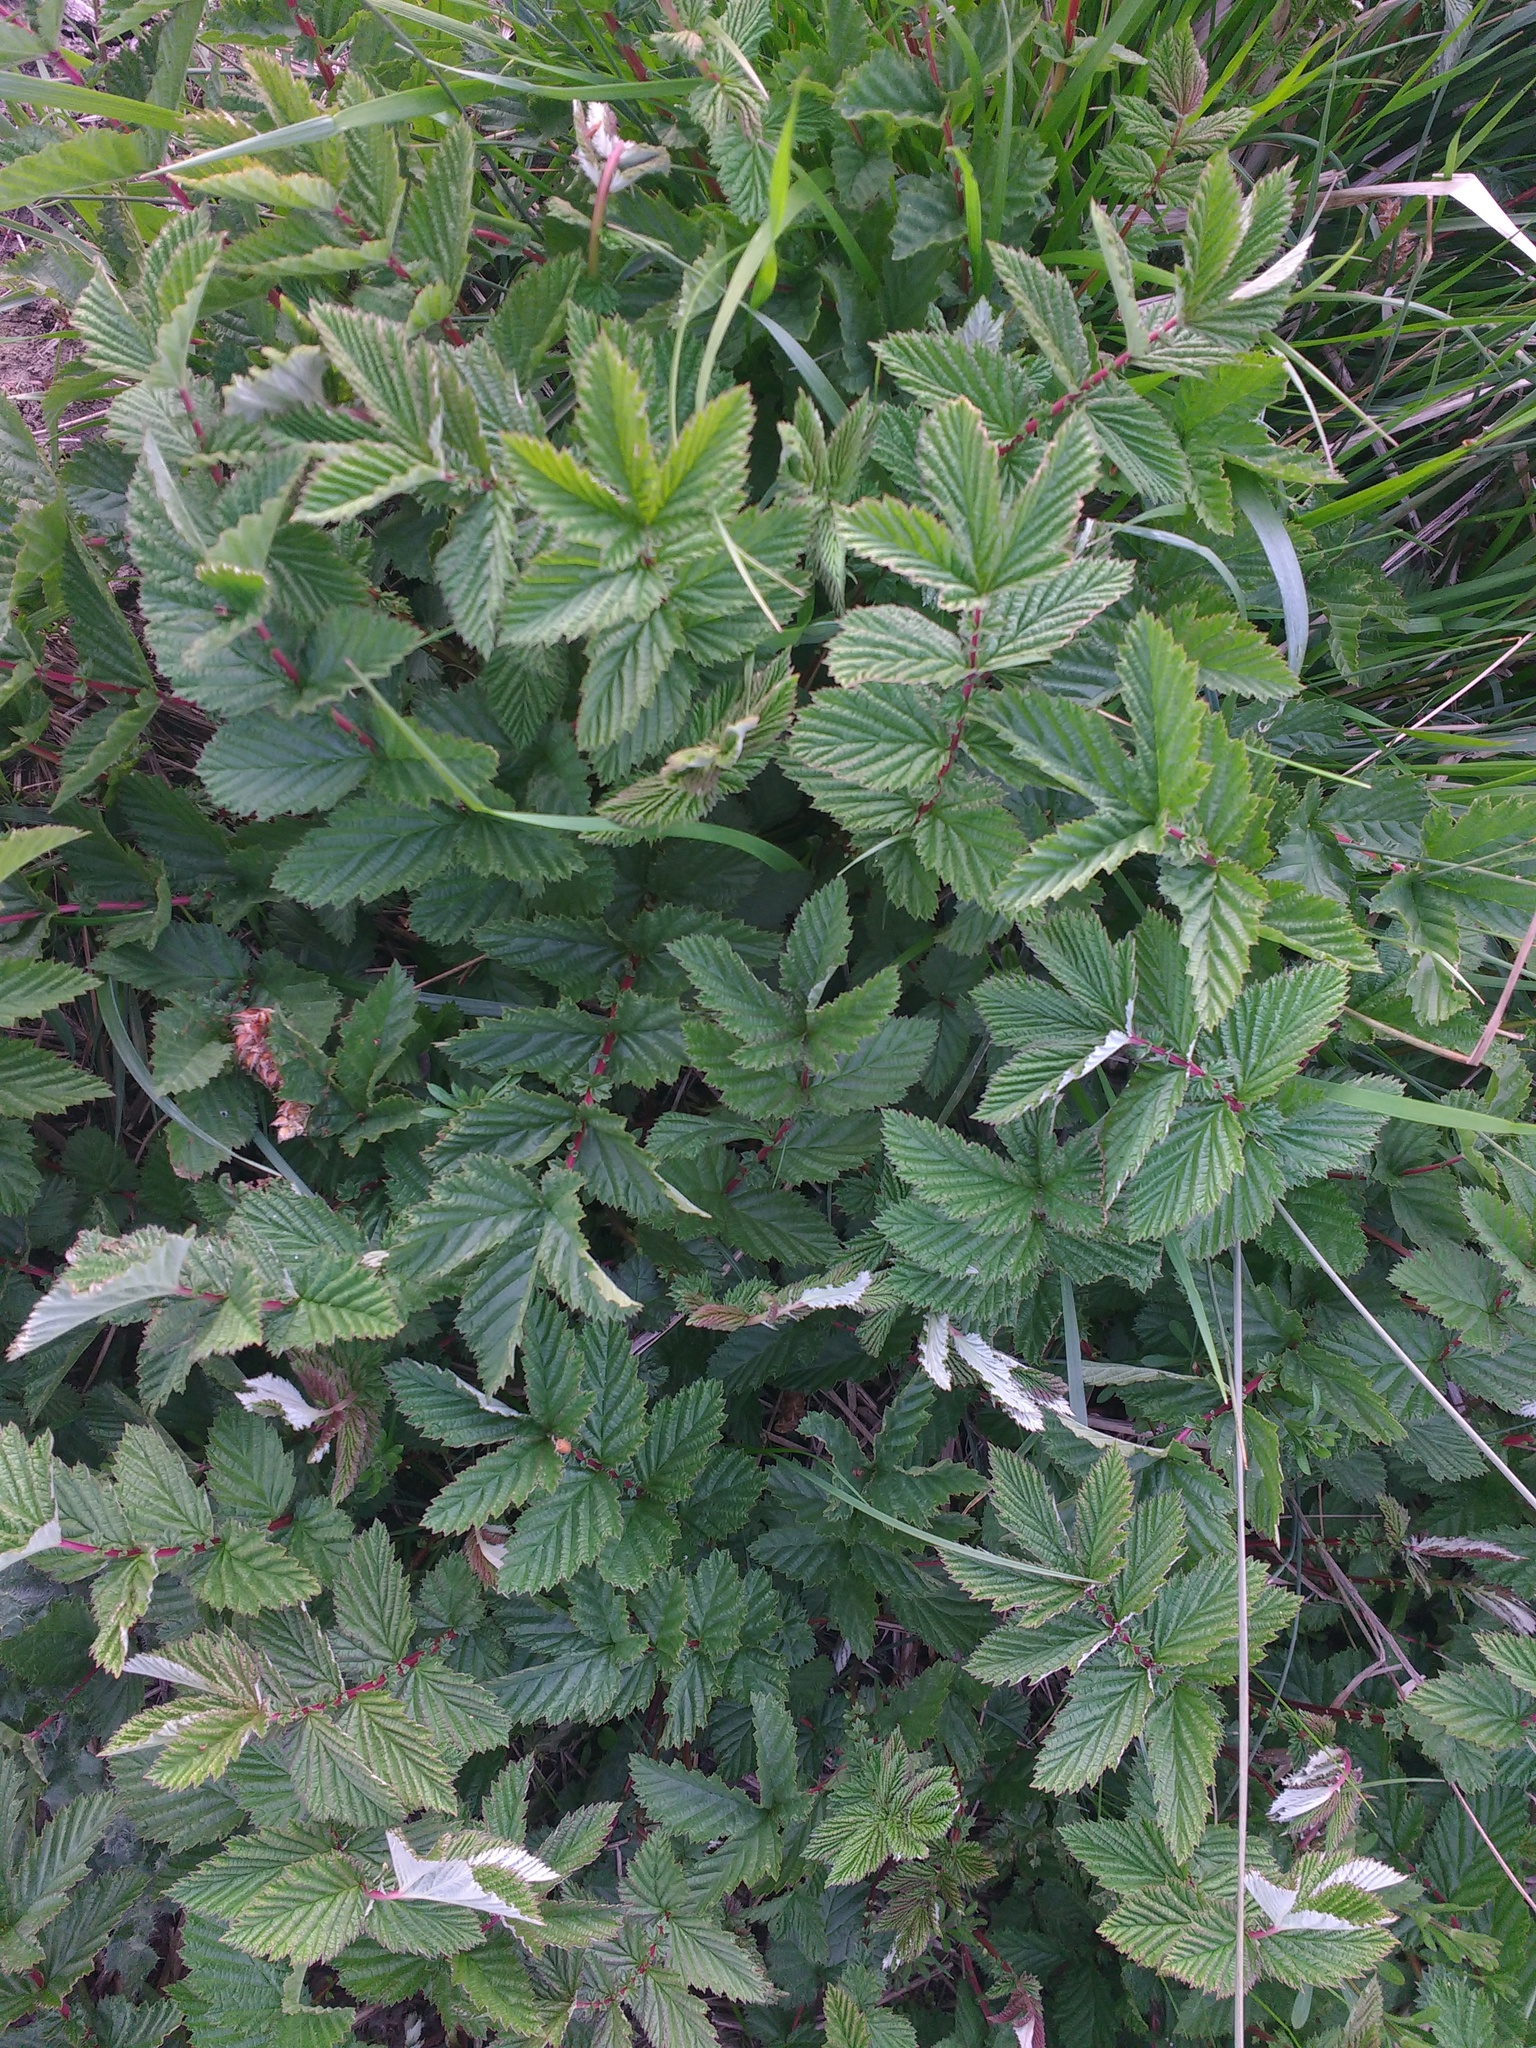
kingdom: Plantae
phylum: Tracheophyta
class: Magnoliopsida
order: Rosales
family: Rosaceae
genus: Filipendula
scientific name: Filipendula ulmaria
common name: Meadowsweet
